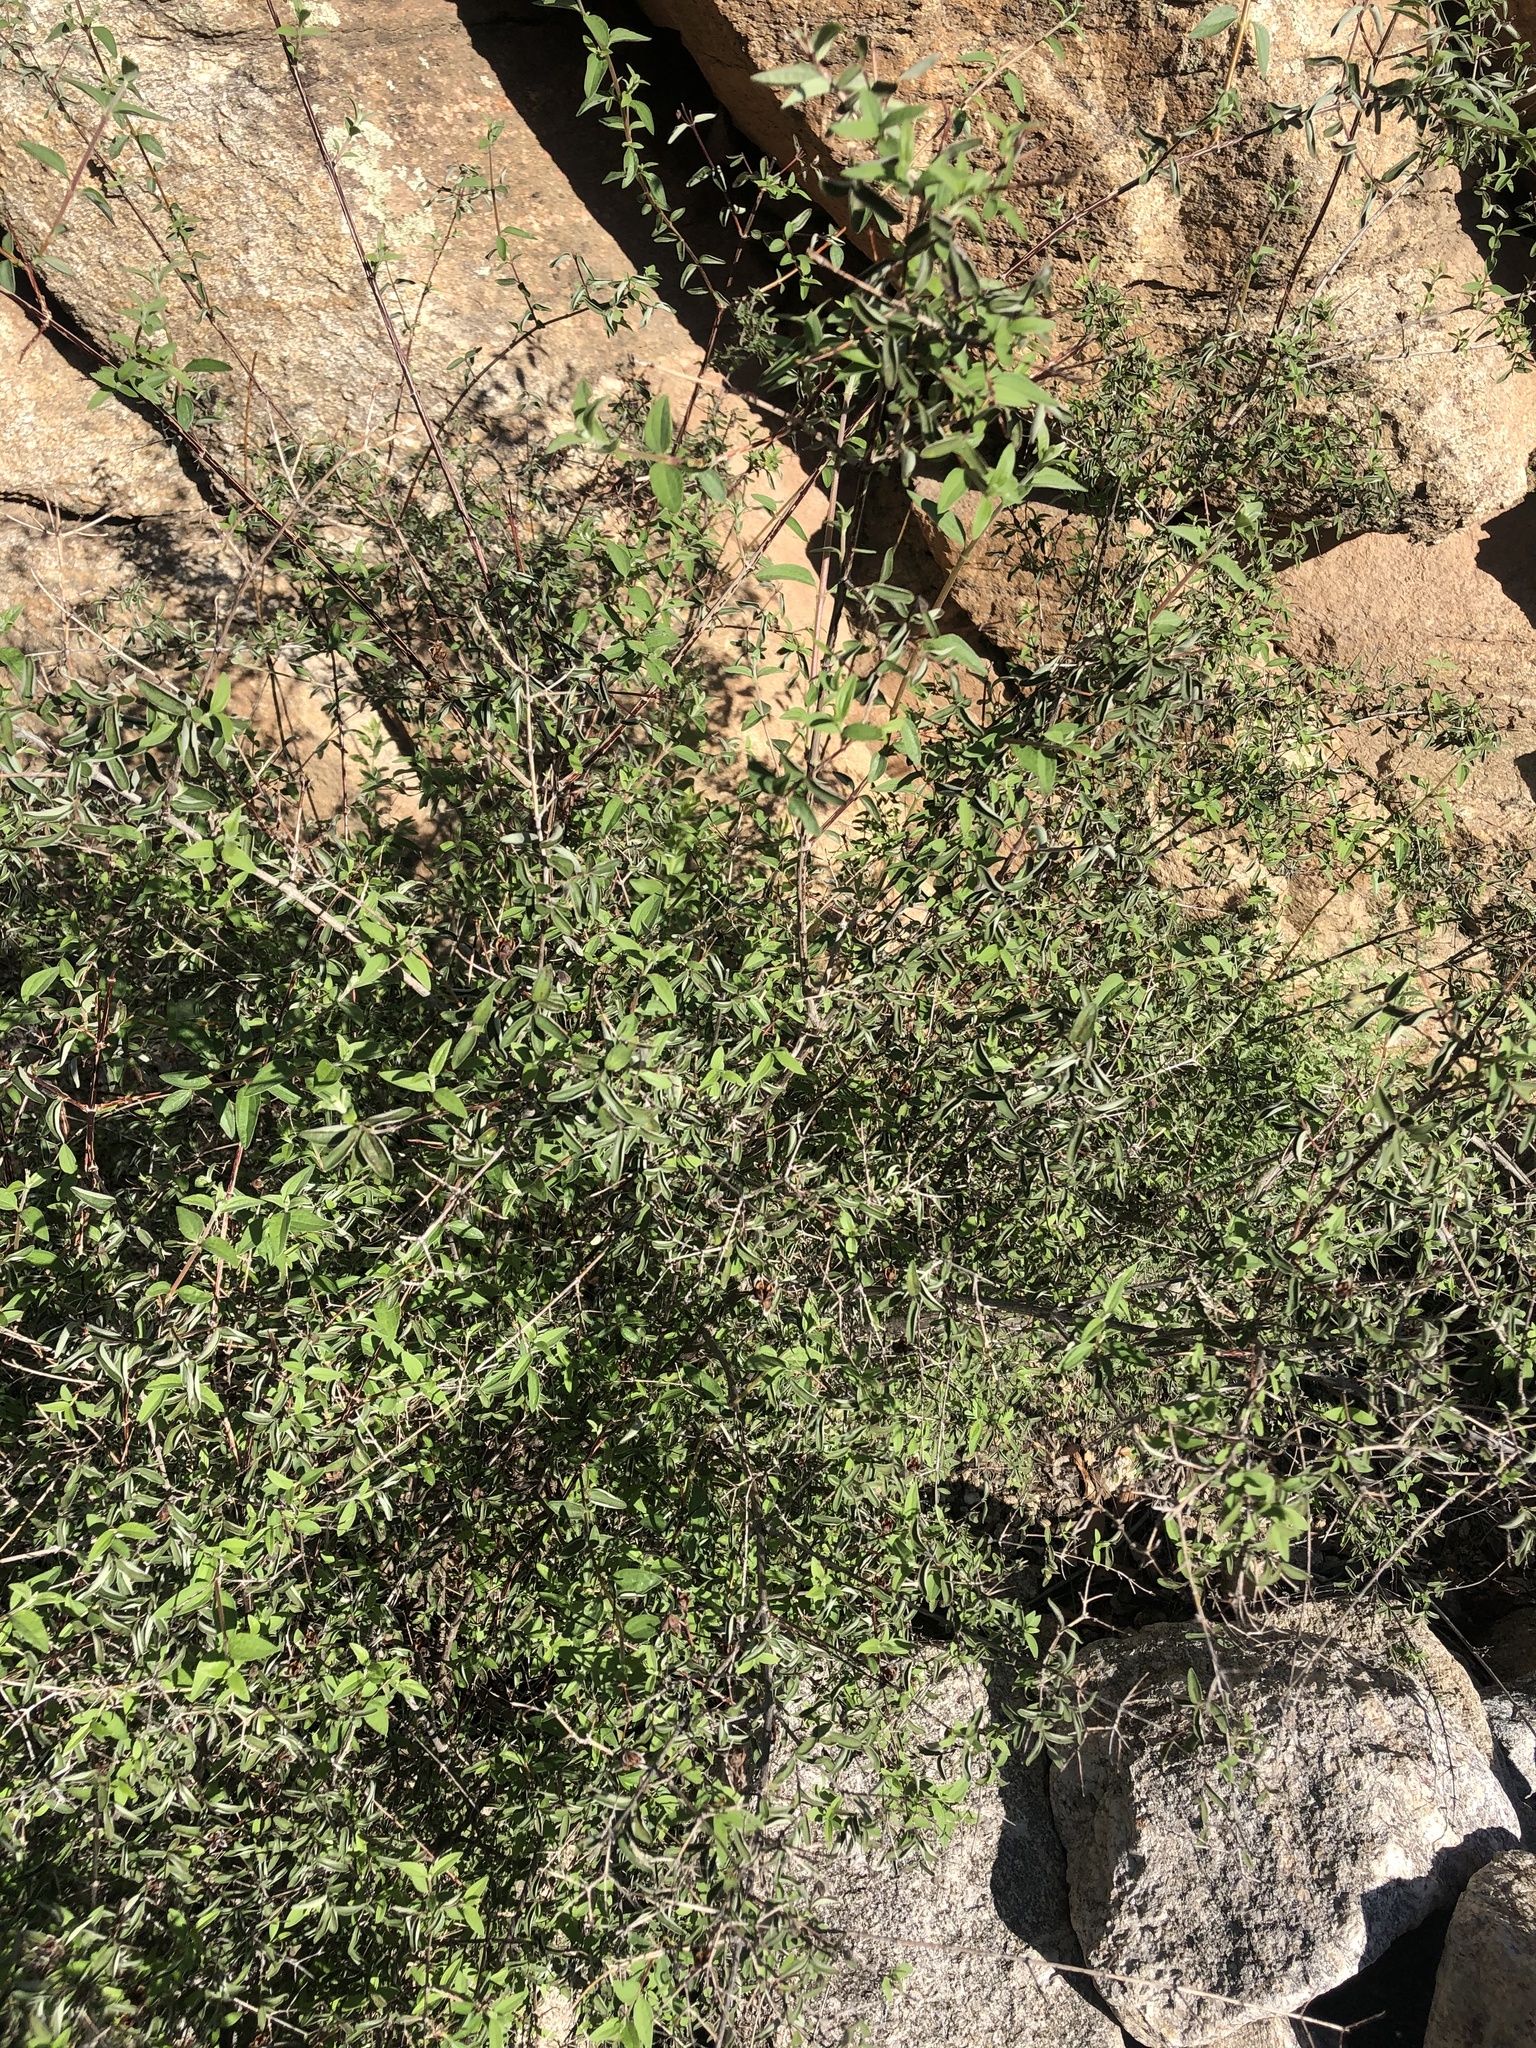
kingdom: Plantae
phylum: Tracheophyta
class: Magnoliopsida
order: Cornales
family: Hydrangeaceae
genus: Philadelphus
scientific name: Philadelphus microphyllus
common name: Desert mock orange
